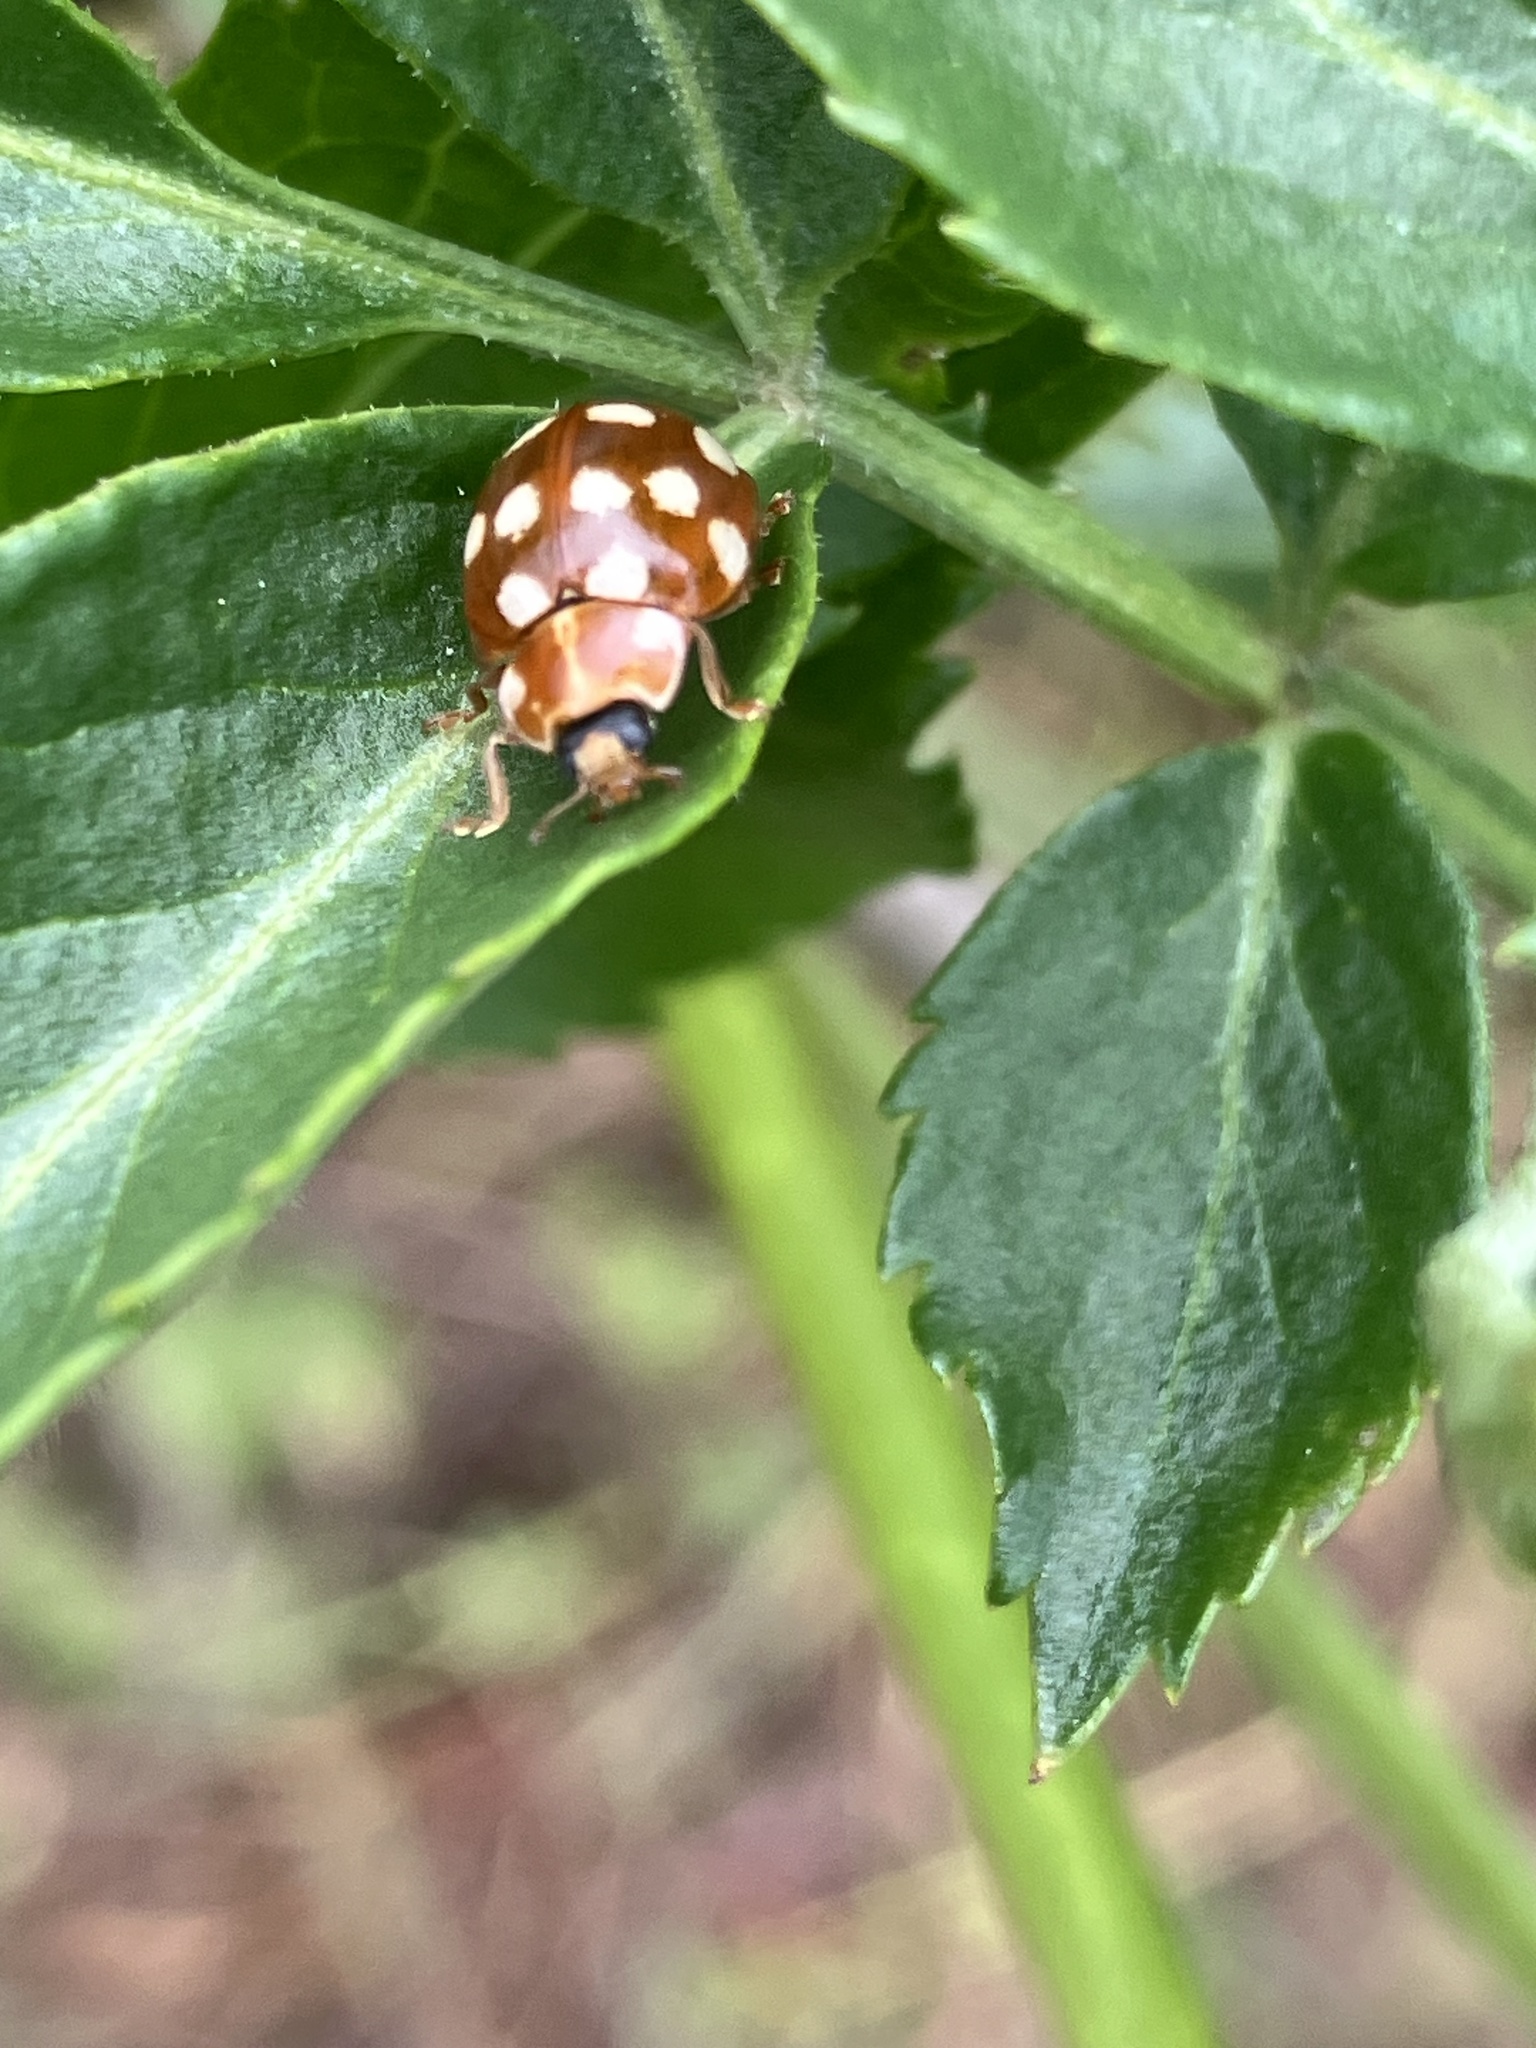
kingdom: Animalia
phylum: Arthropoda
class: Insecta
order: Coleoptera
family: Coccinellidae
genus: Calvia
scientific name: Calvia quatuordecimguttata
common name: Cream-spot ladybird
